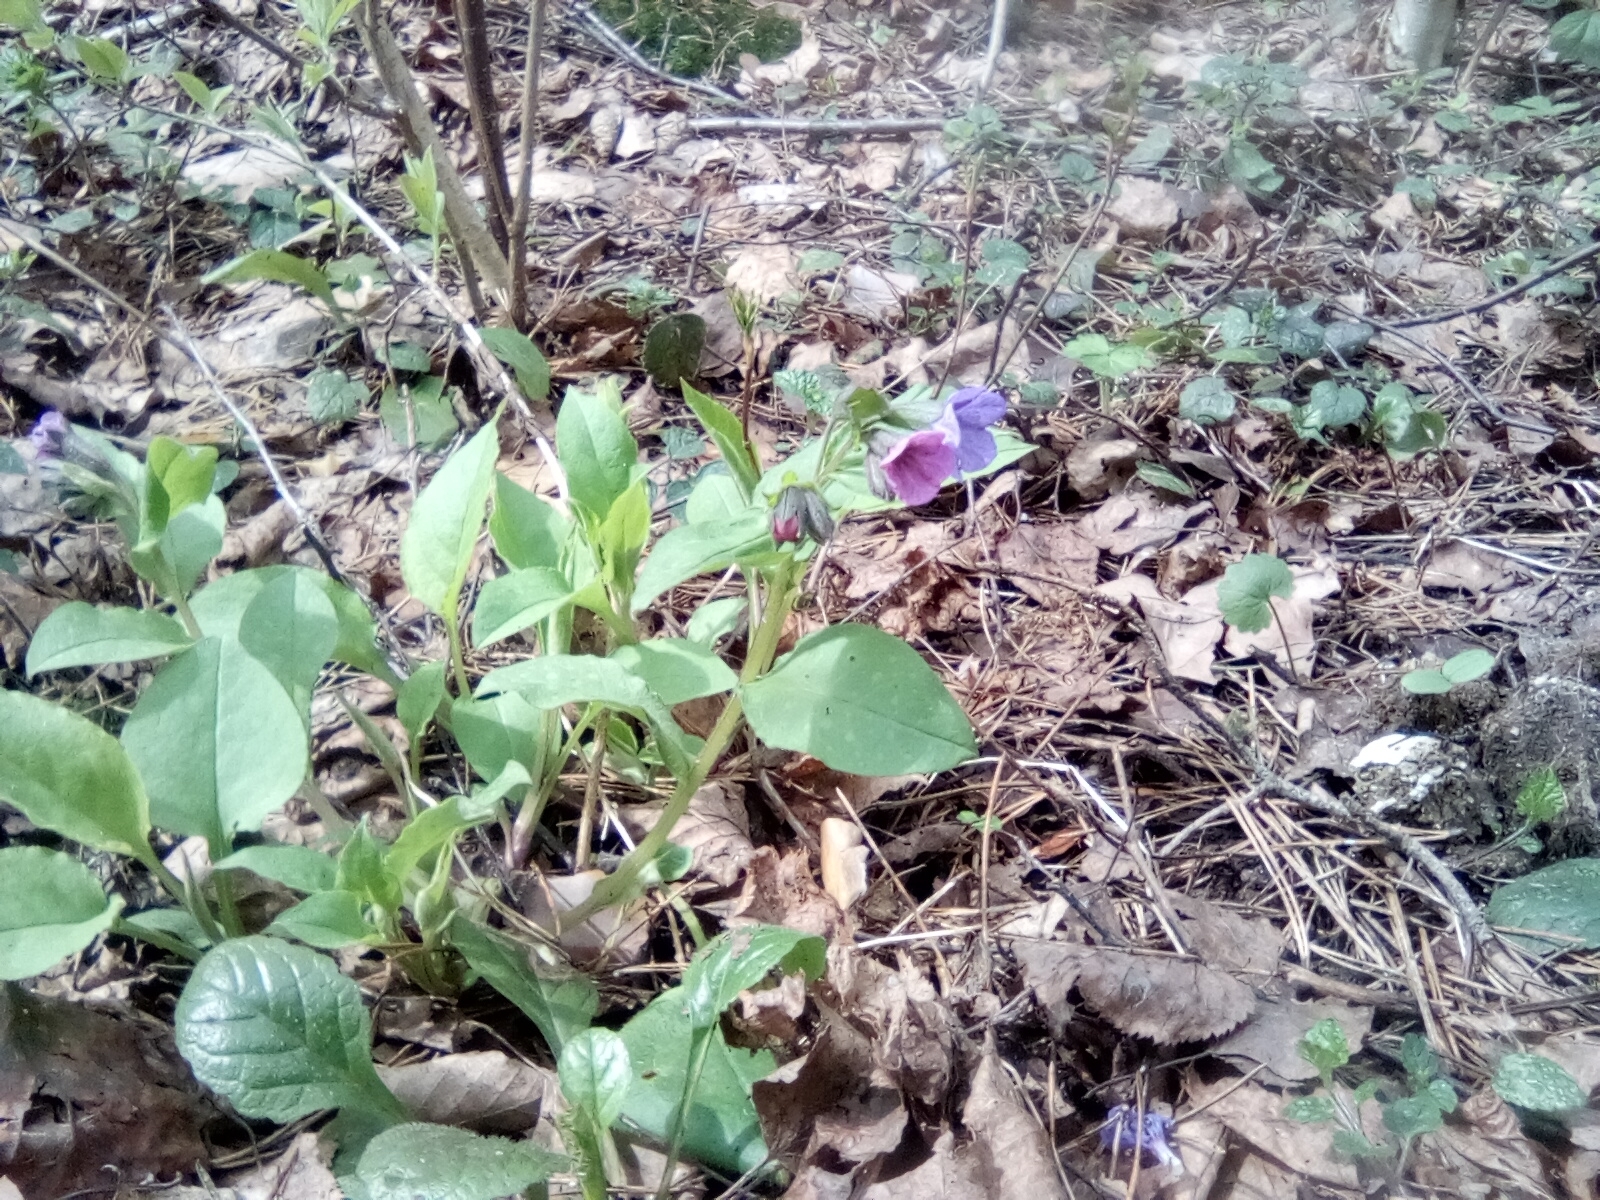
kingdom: Plantae
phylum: Tracheophyta
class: Magnoliopsida
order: Boraginales
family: Boraginaceae
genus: Pulmonaria
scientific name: Pulmonaria obscura
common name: Suffolk lungwort
